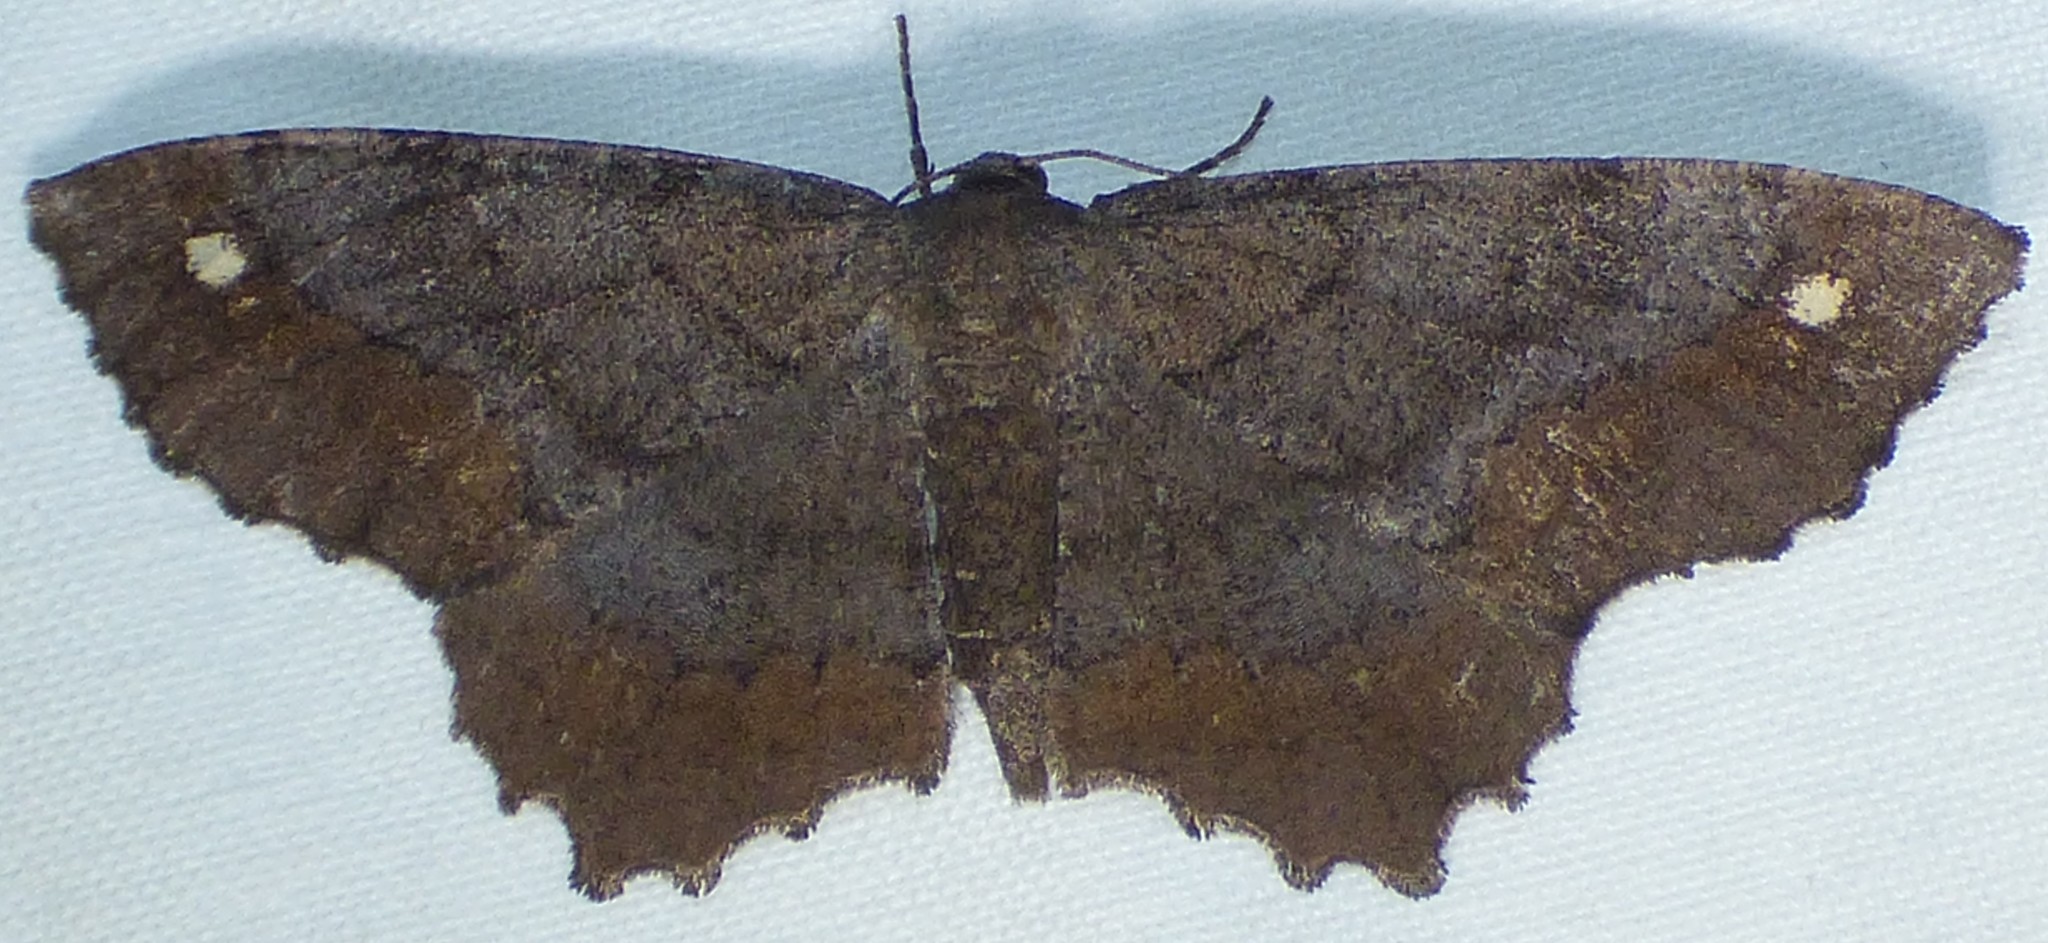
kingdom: Animalia
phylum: Arthropoda
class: Insecta
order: Lepidoptera
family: Geometridae
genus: Hypagyrtis
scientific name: Hypagyrtis esther
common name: Esther moth
